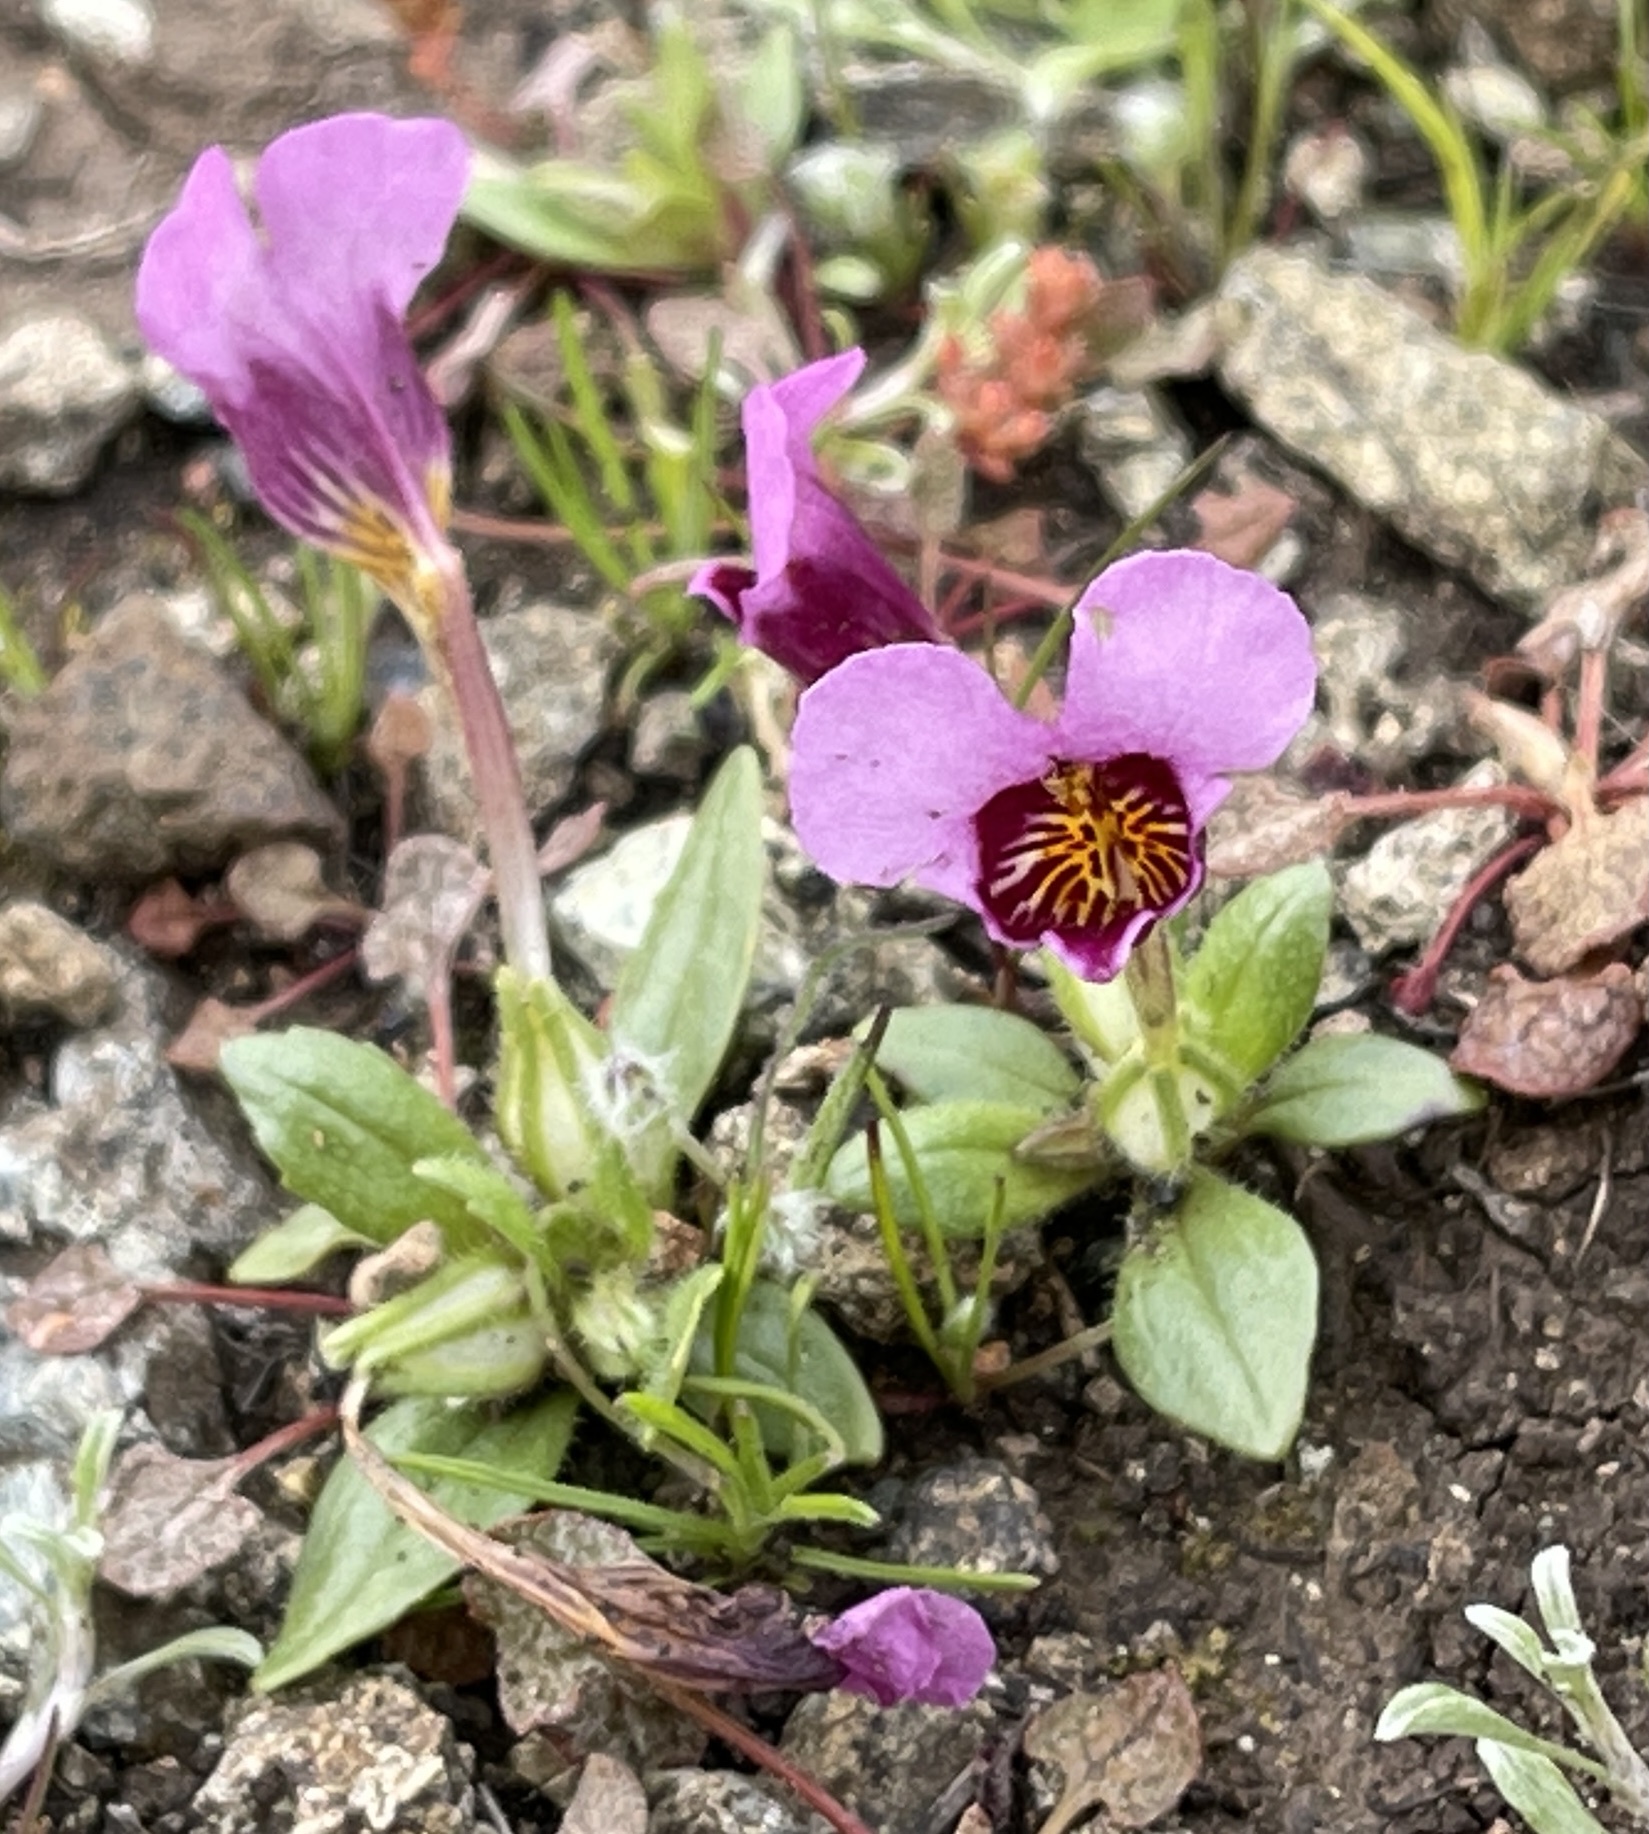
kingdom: Plantae
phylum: Tracheophyta
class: Magnoliopsida
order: Lamiales
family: Phrymaceae
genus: Diplacus
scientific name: Diplacus douglasii
